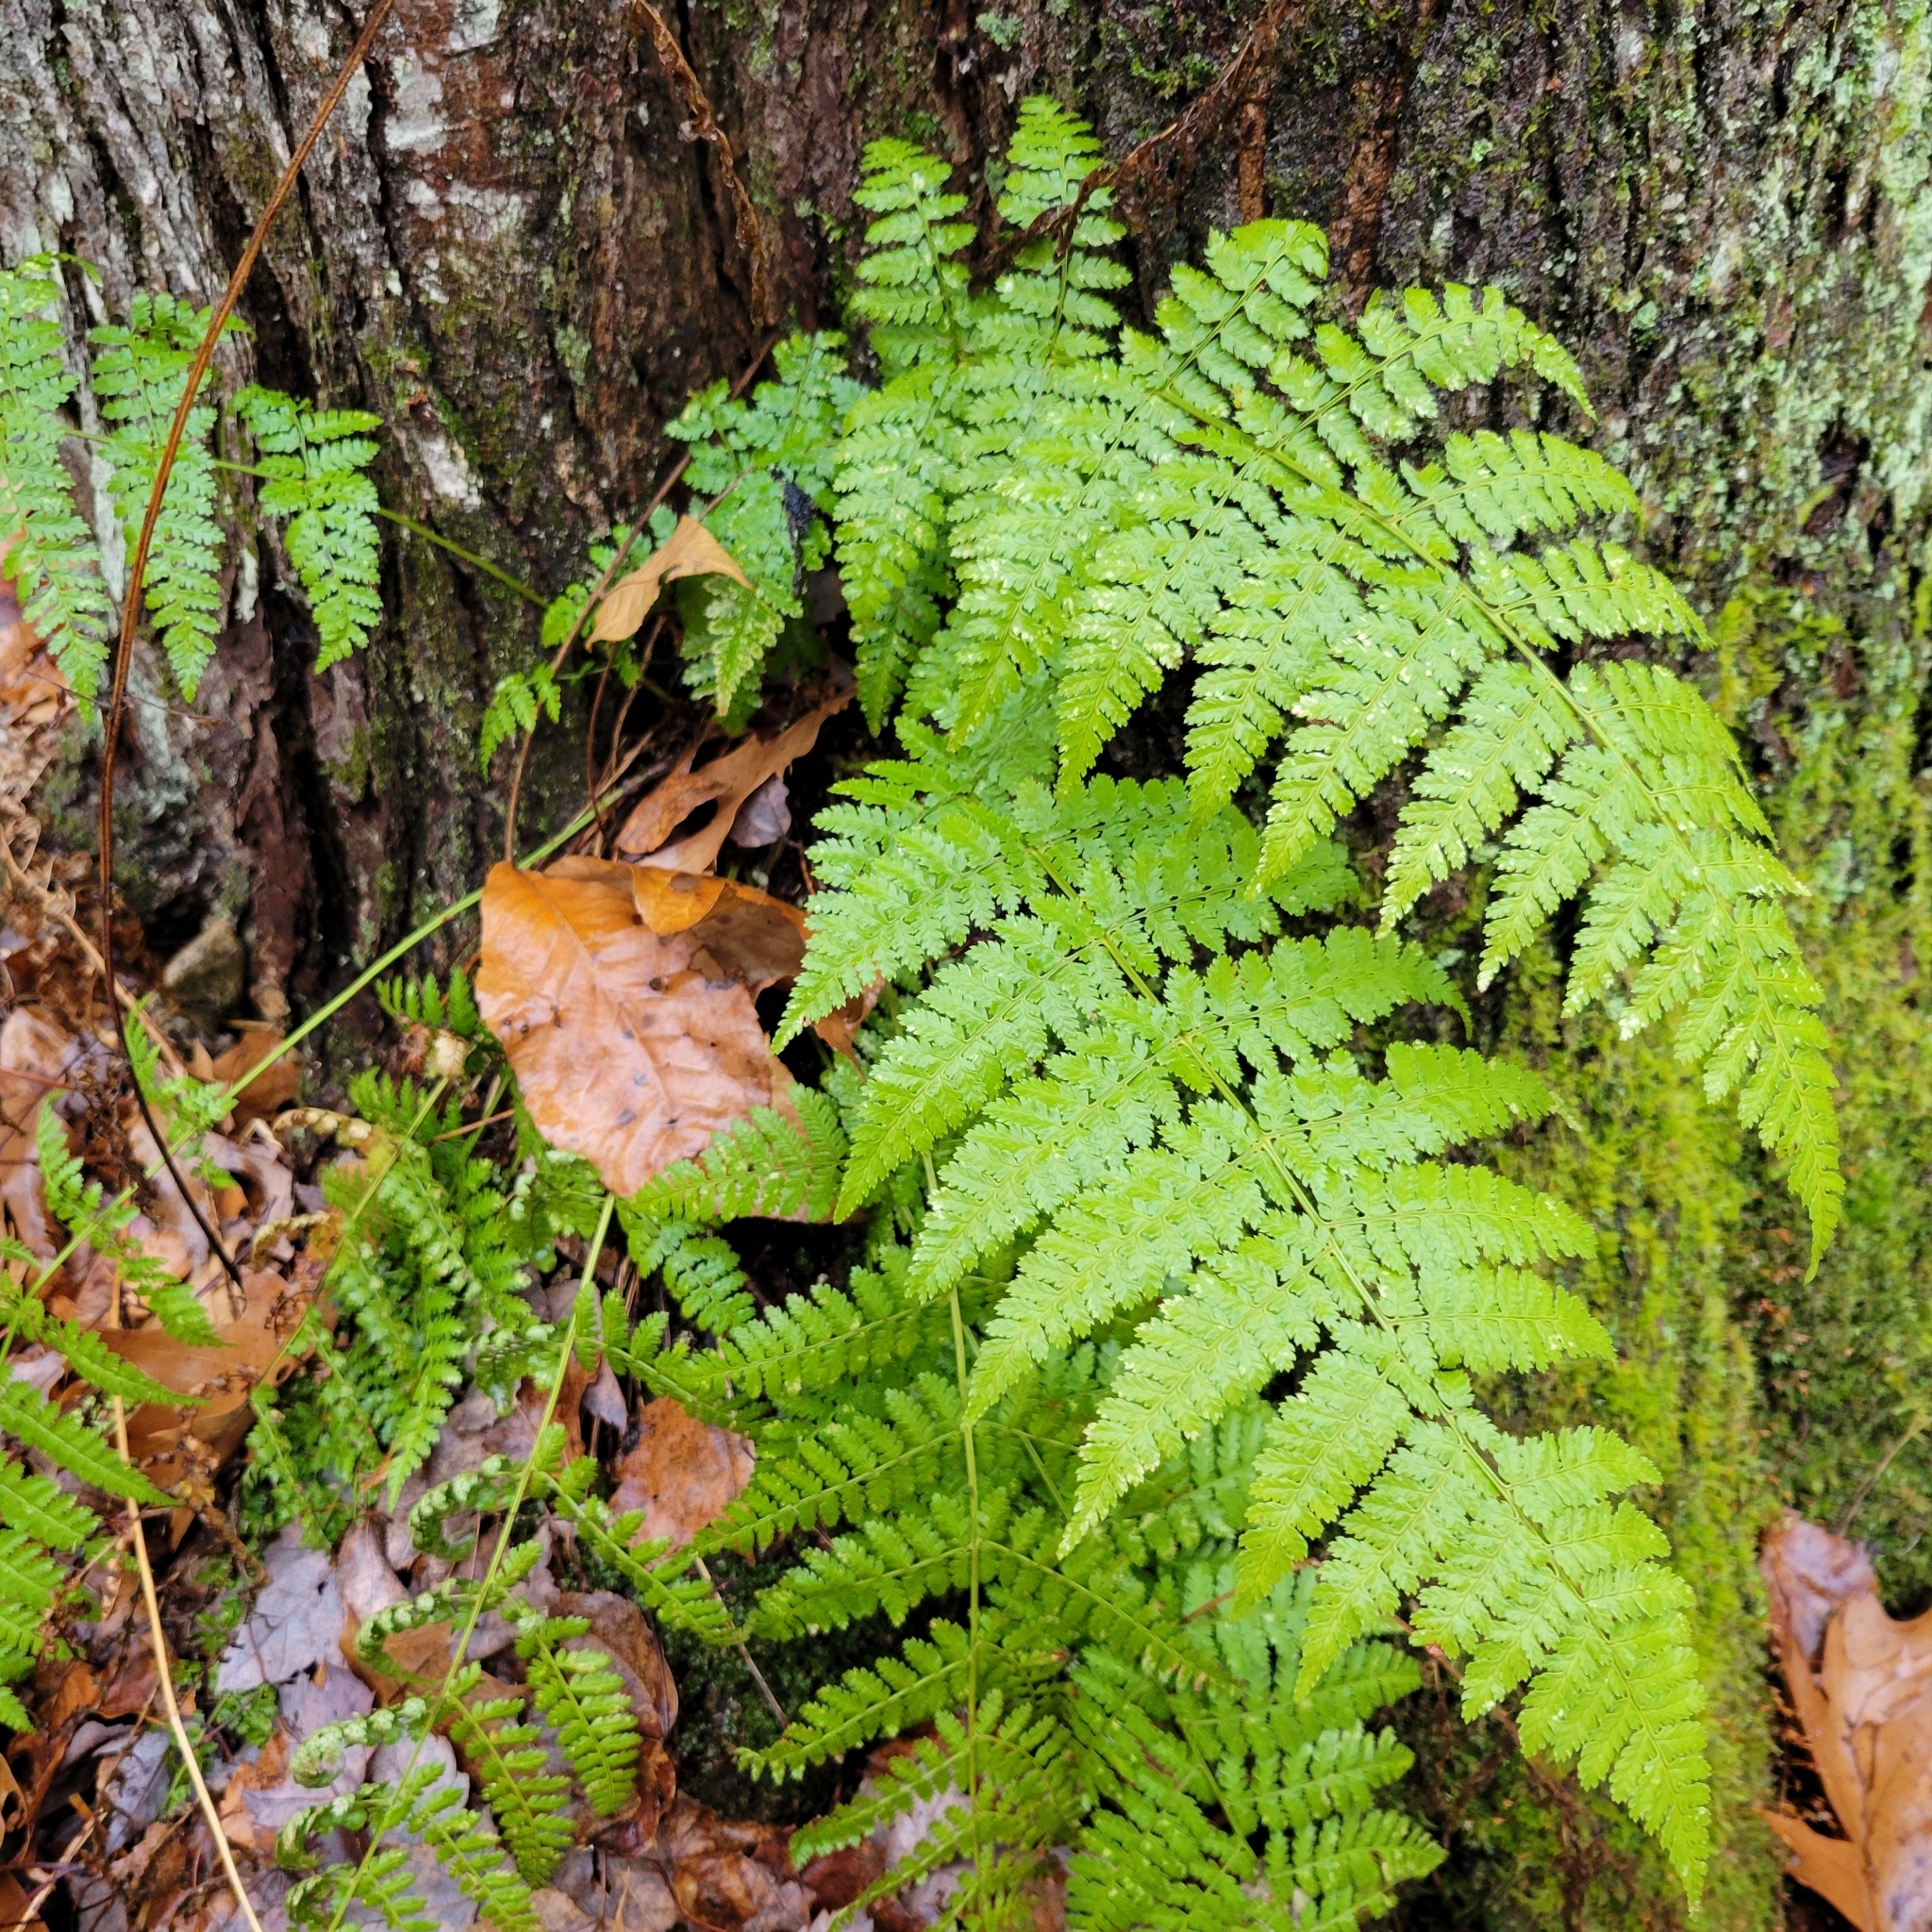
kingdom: Plantae
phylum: Tracheophyta
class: Polypodiopsida
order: Polypodiales
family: Dryopteridaceae
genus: Dryopteris
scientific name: Dryopteris carthusiana
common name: Narrow buckler-fern
